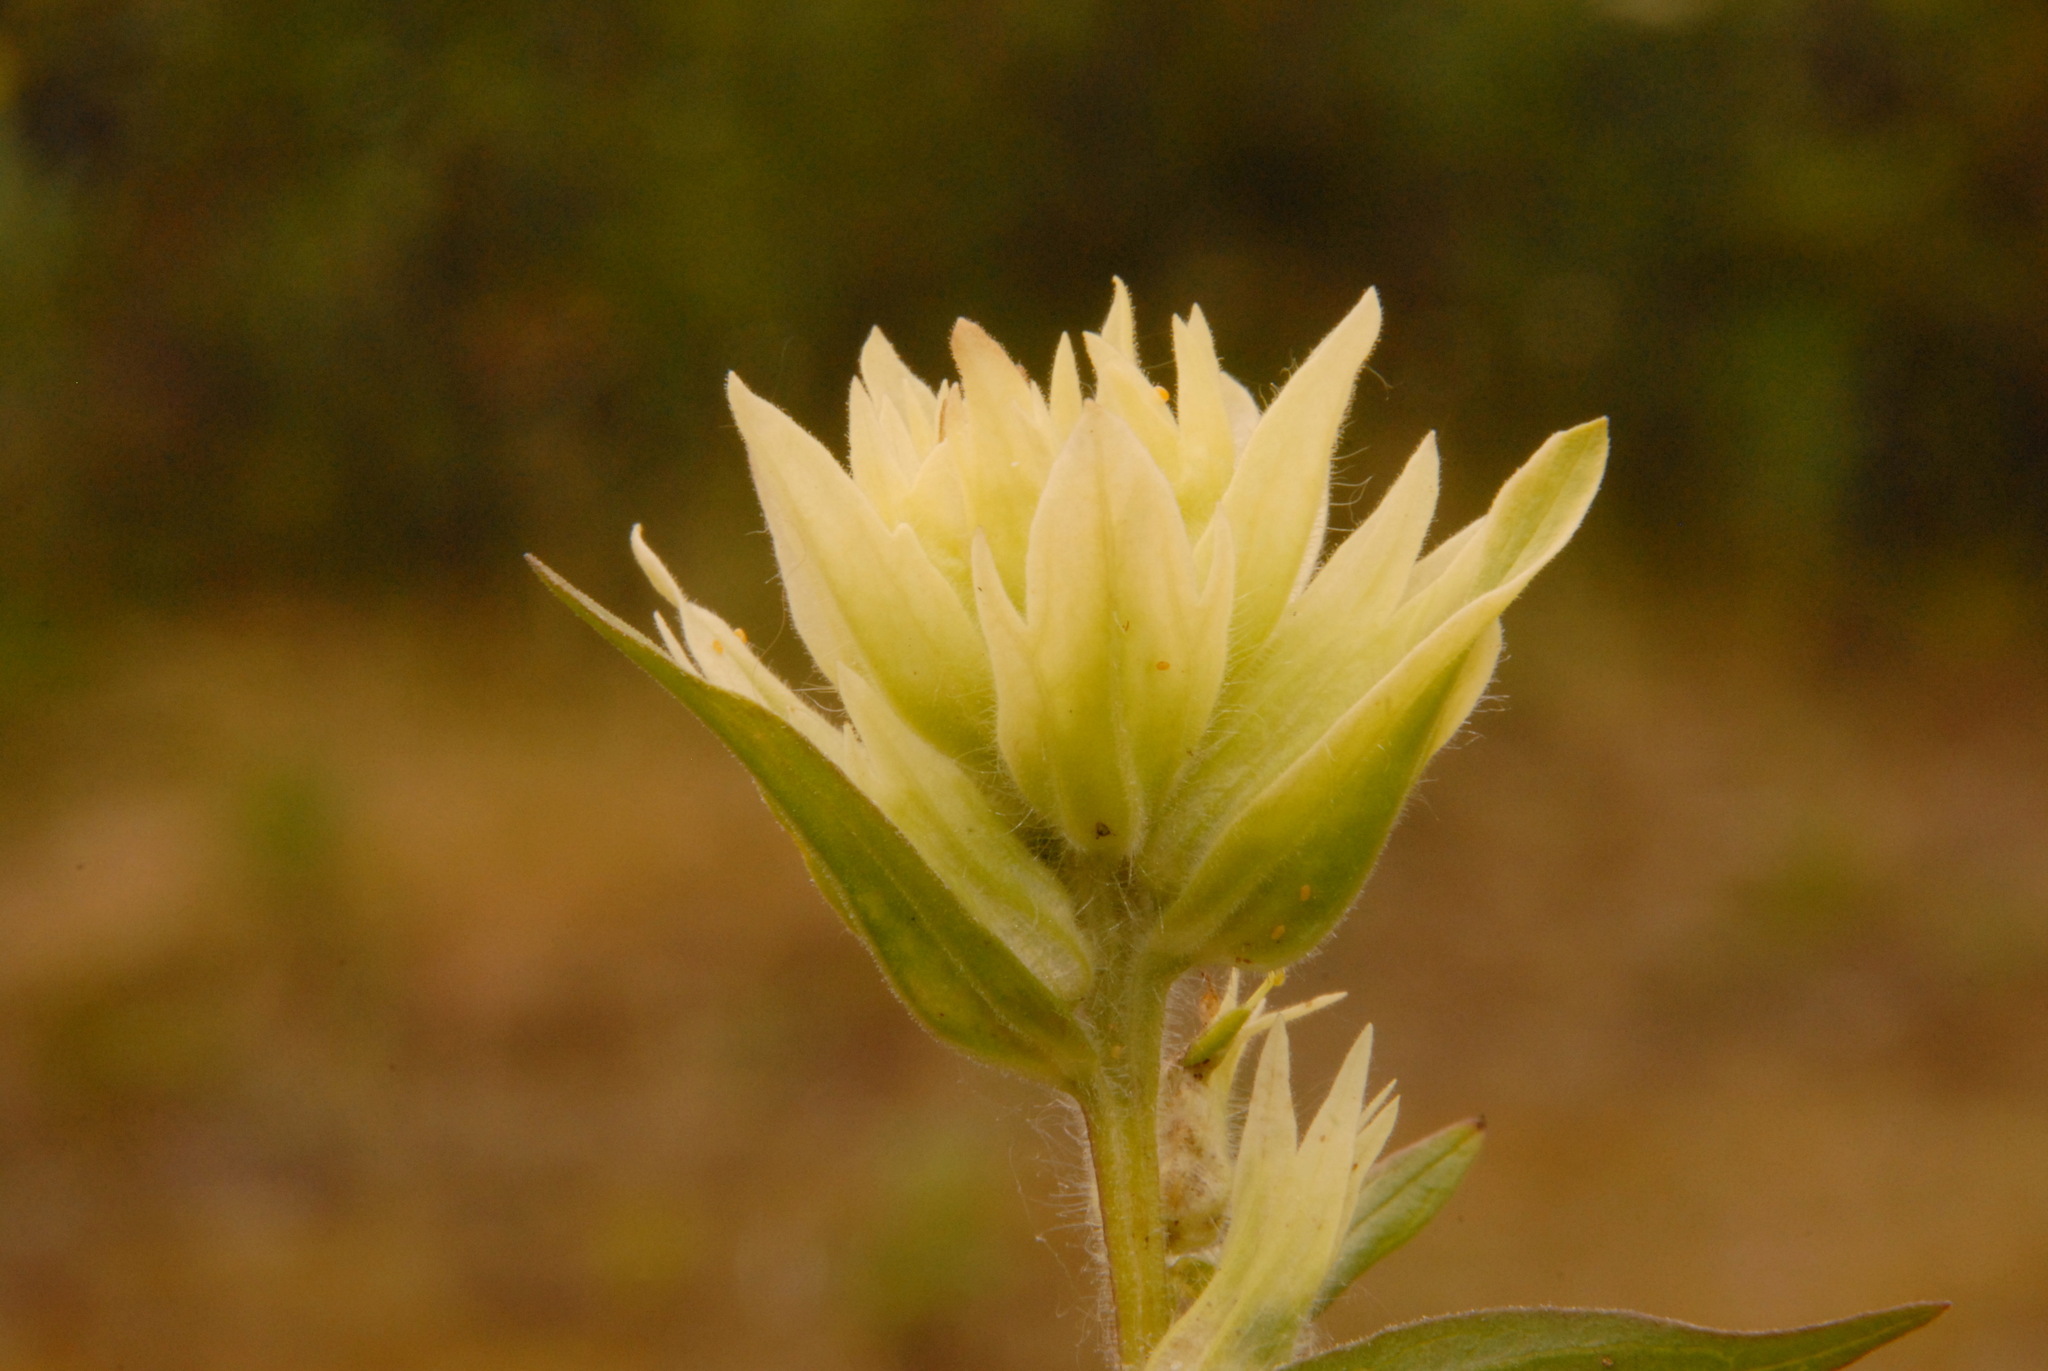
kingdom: Plantae
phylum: Tracheophyta
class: Magnoliopsida
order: Lamiales
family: Orobanchaceae
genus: Castilleja
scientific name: Castilleja unalaschcensis
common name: Unalaska paintbrush
